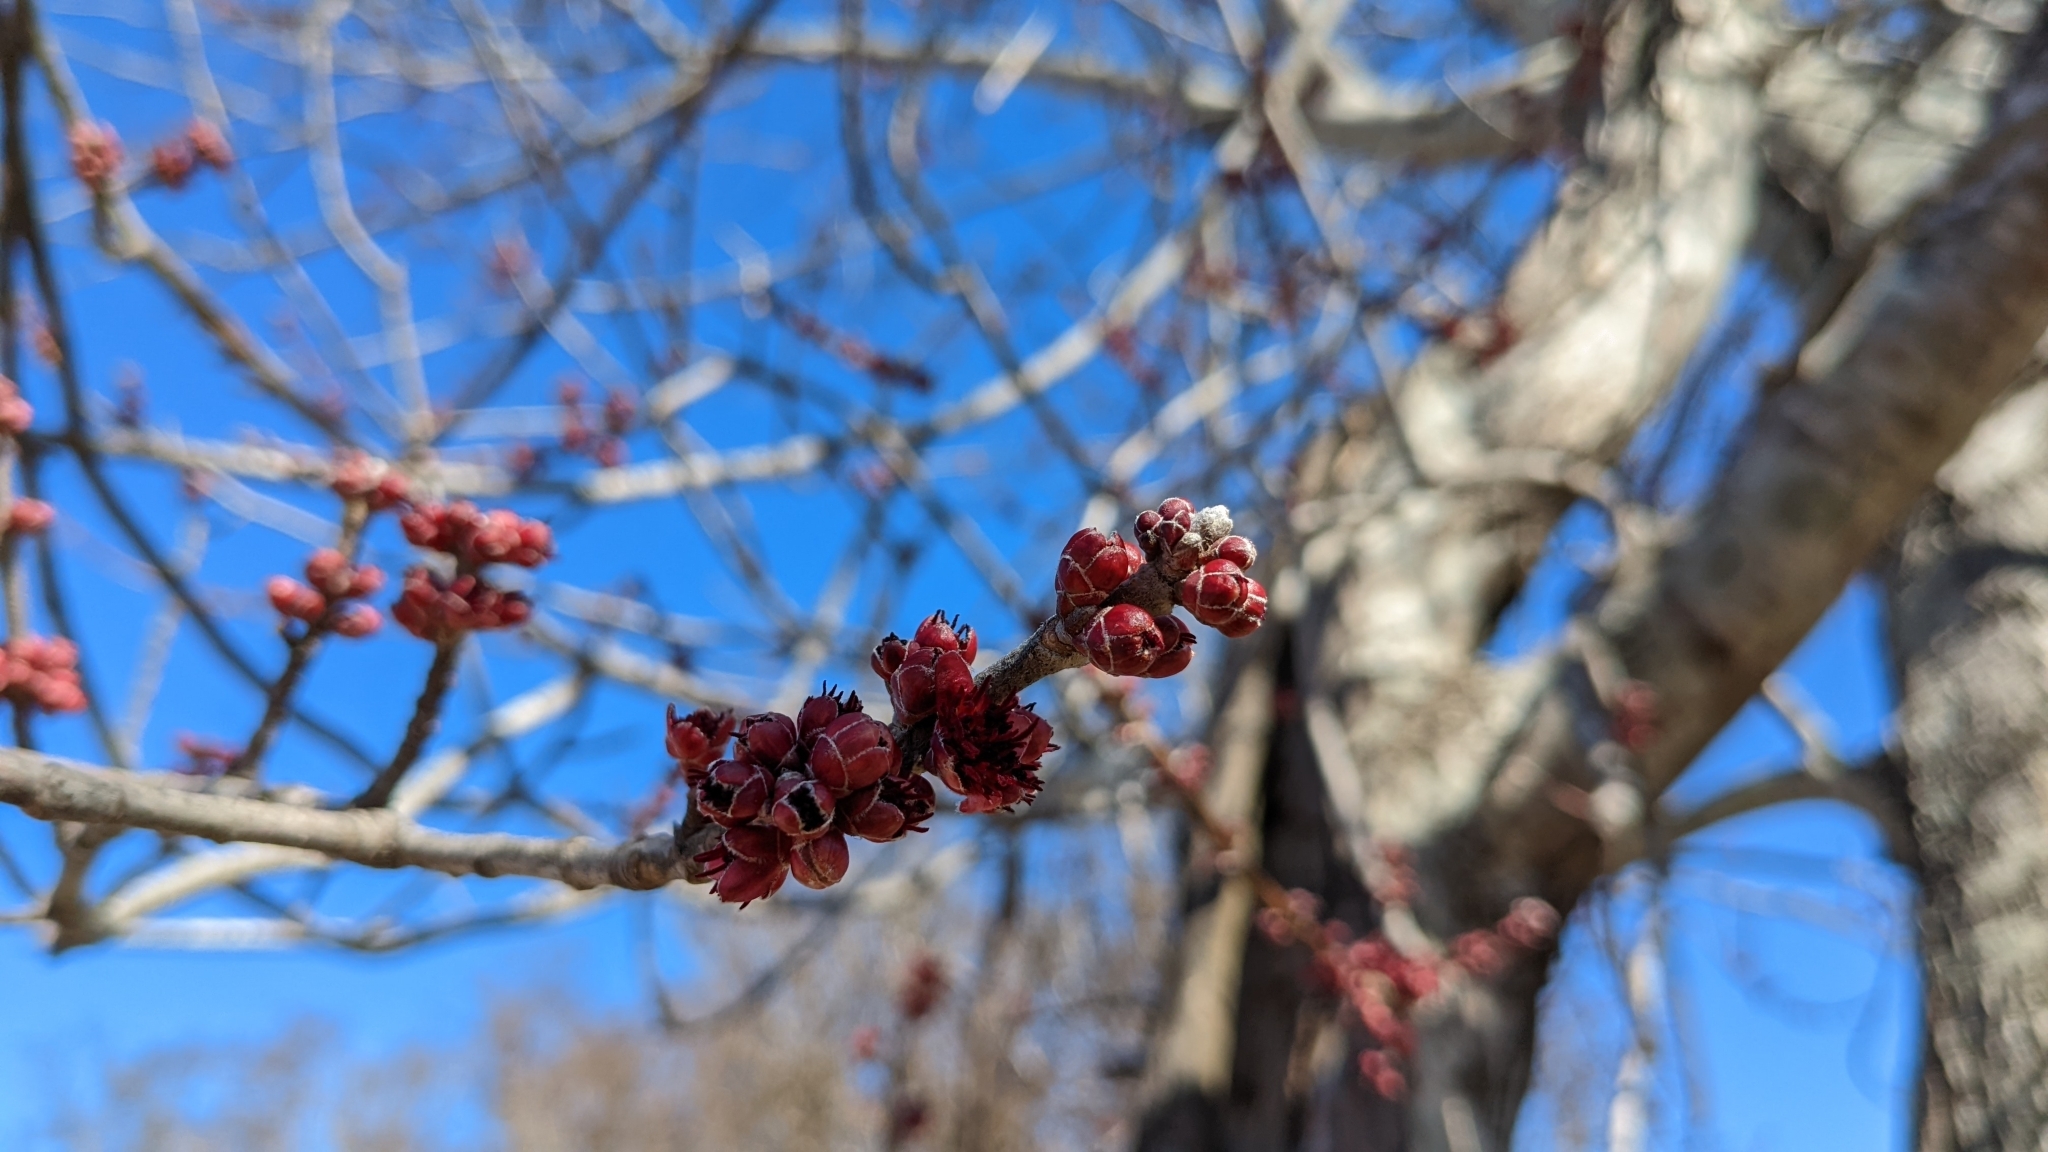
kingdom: Plantae
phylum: Tracheophyta
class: Magnoliopsida
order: Sapindales
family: Sapindaceae
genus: Acer
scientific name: Acer rubrum
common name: Red maple
